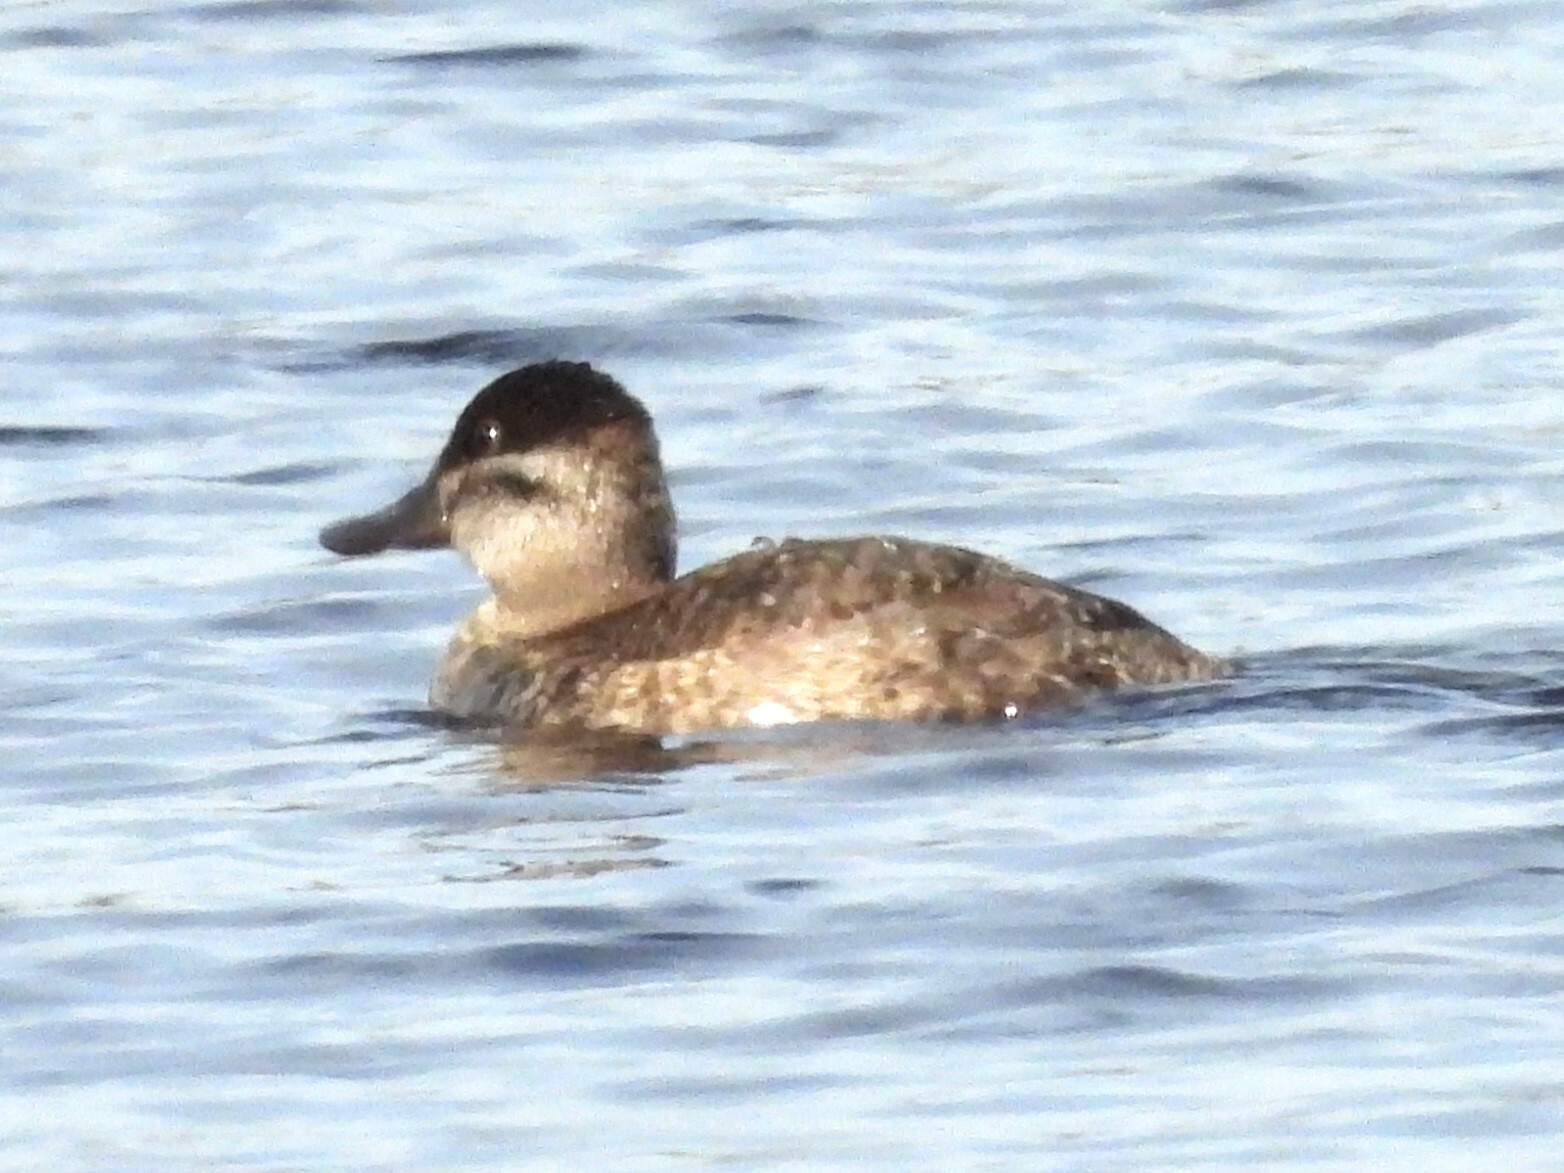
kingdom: Animalia
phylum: Chordata
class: Aves
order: Anseriformes
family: Anatidae
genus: Oxyura
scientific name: Oxyura jamaicensis
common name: Ruddy duck
